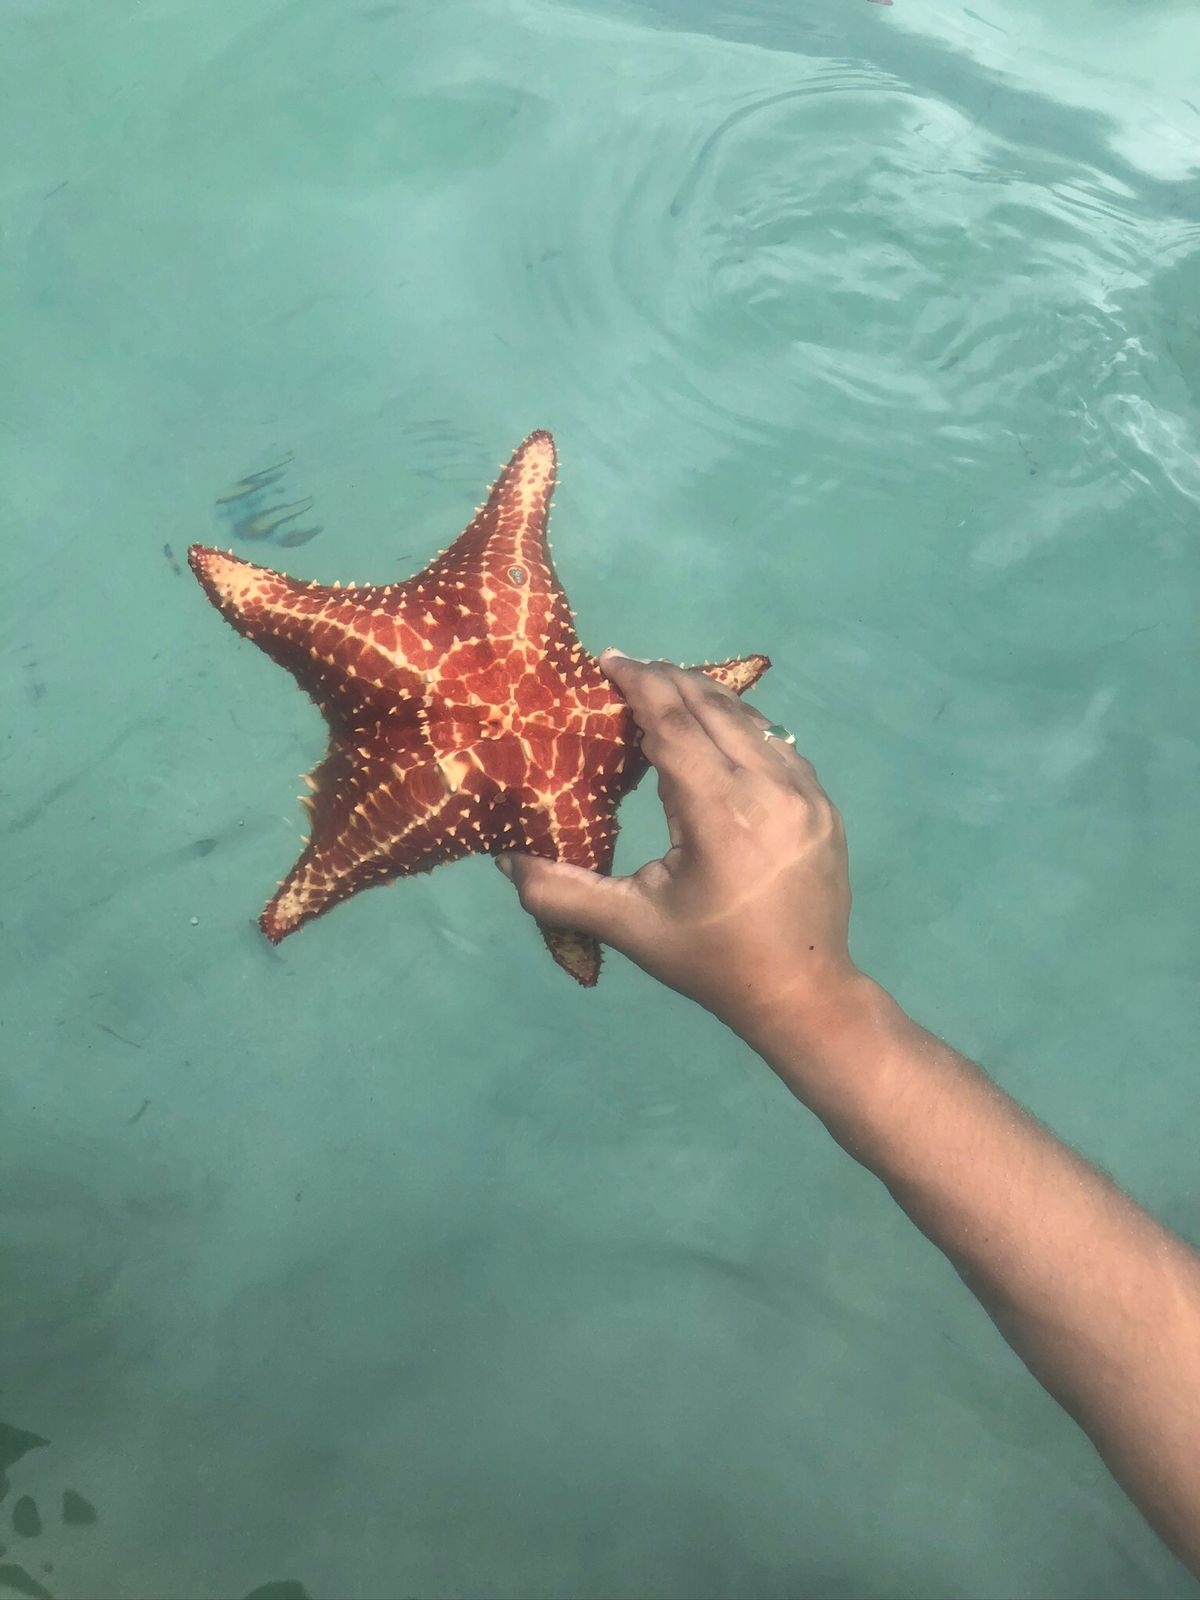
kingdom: Animalia
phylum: Echinodermata
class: Asteroidea
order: Valvatida
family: Oreasteridae
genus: Oreaster
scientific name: Oreaster reticulatus
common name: Cushion sea star
